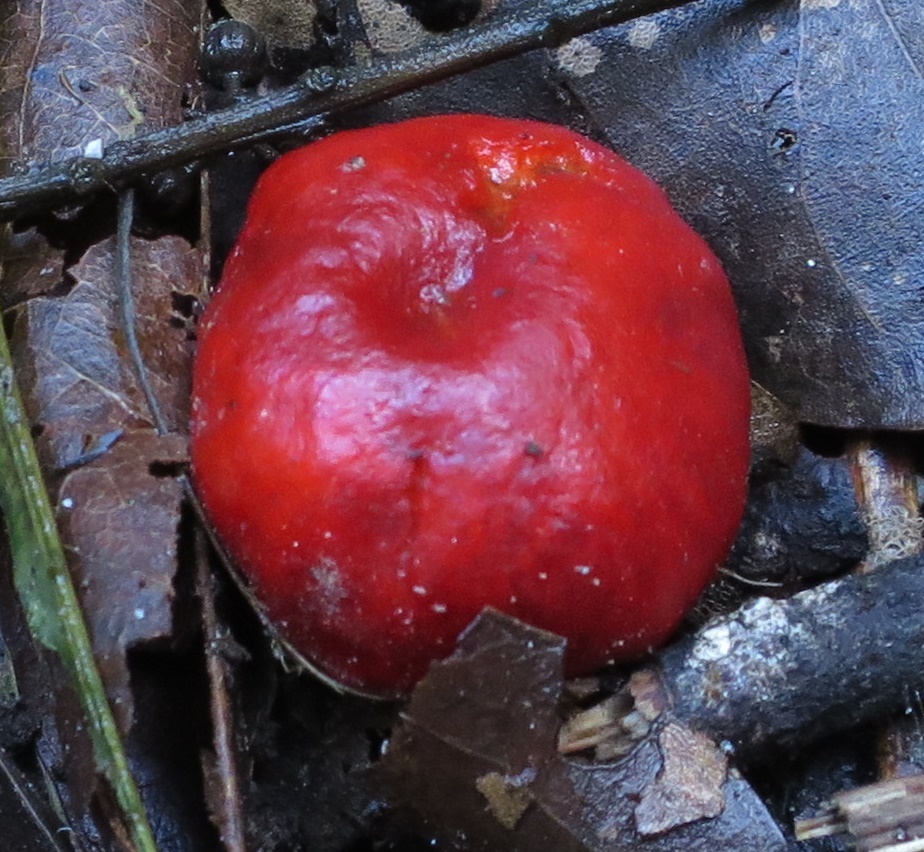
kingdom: Fungi
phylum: Basidiomycota
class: Agaricomycetes
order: Agaricales
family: Strophariaceae
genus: Leratiomyces
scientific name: Leratiomyces erythrocephalus
